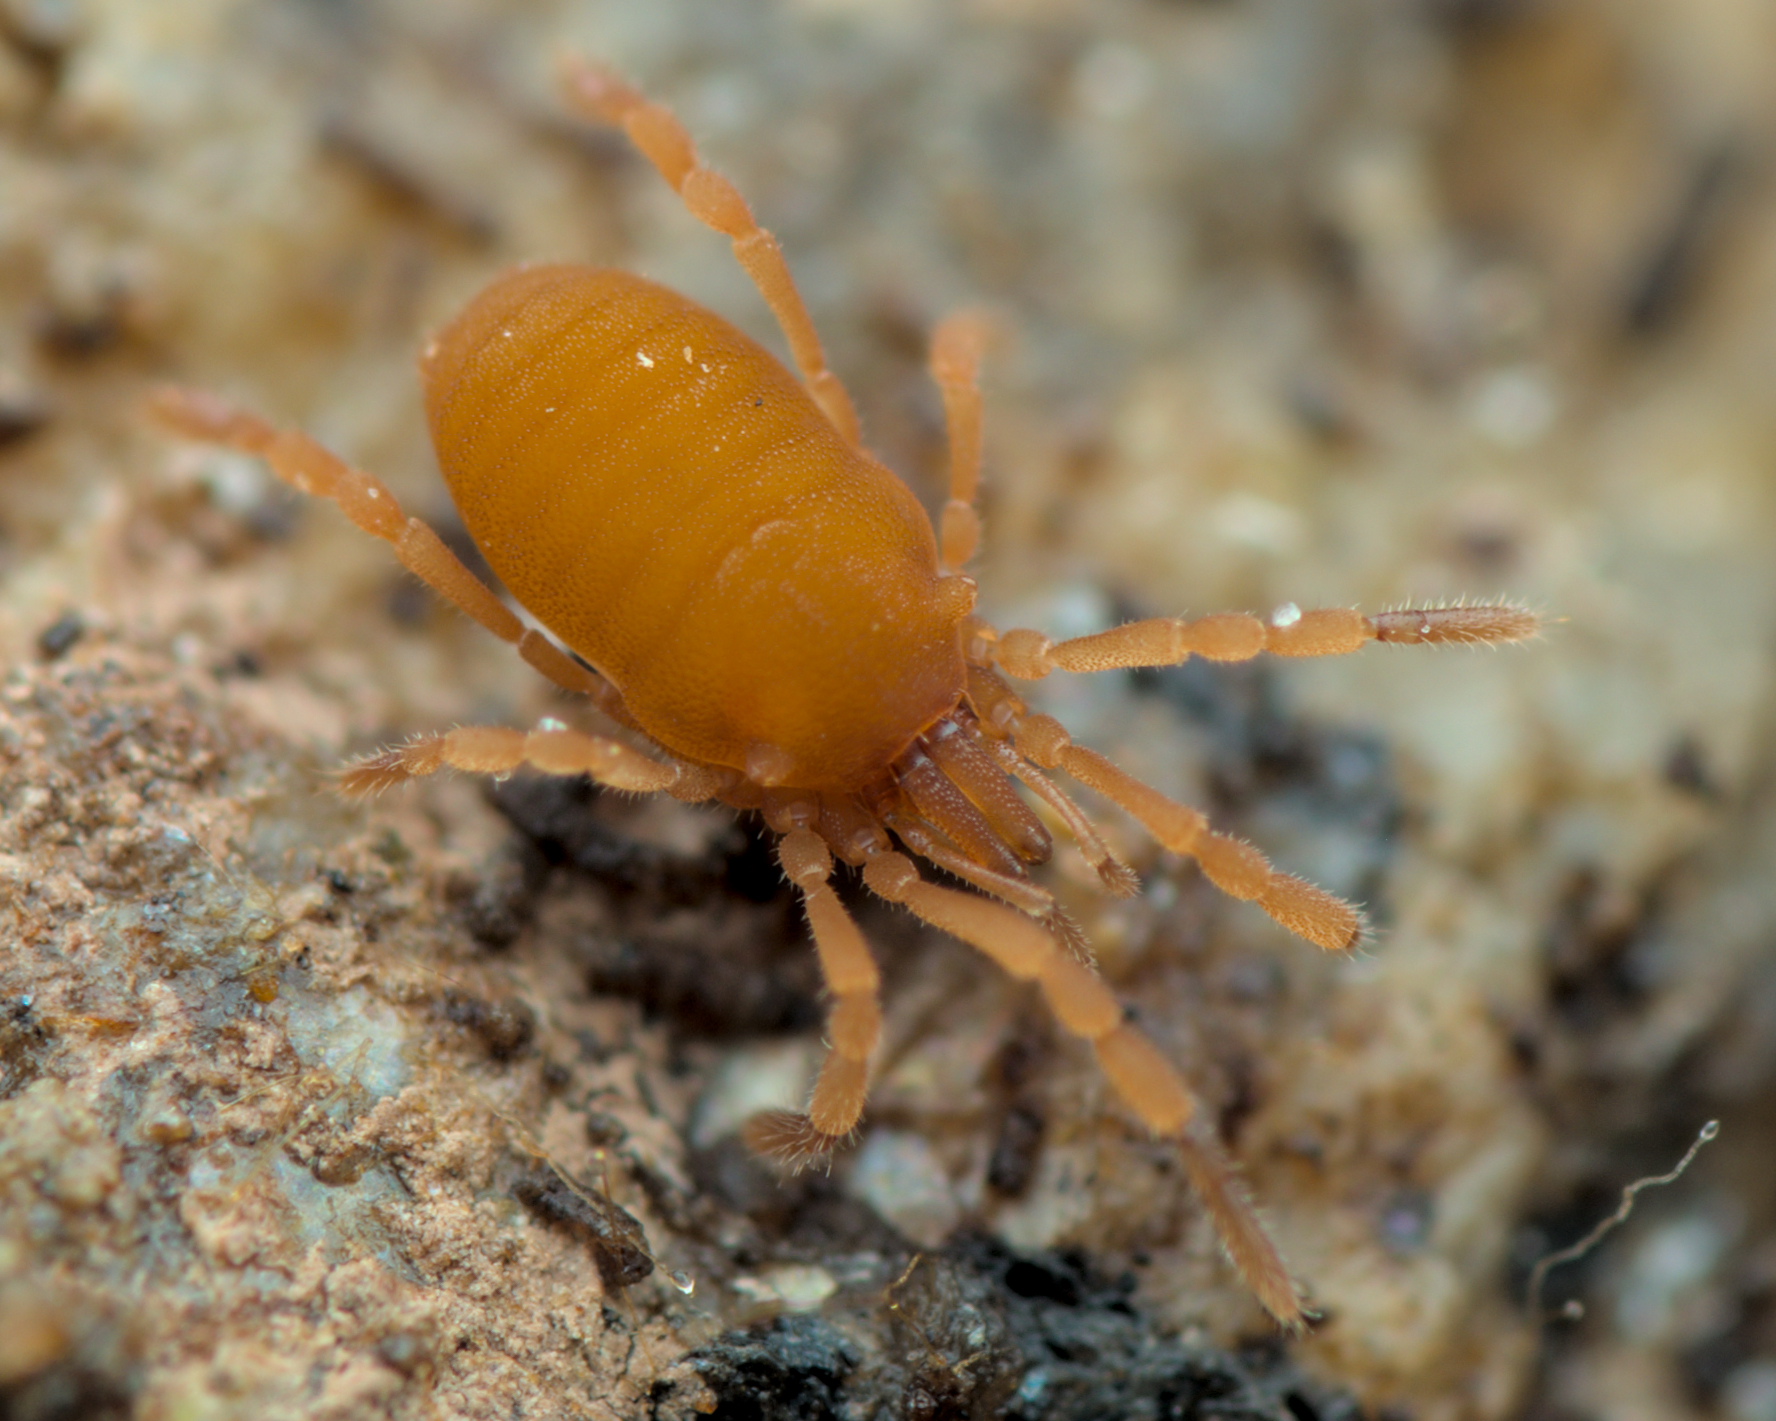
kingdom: Animalia
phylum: Arthropoda
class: Arachnida
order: Opiliones
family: Sironidae
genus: Siro
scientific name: Siro rubens
